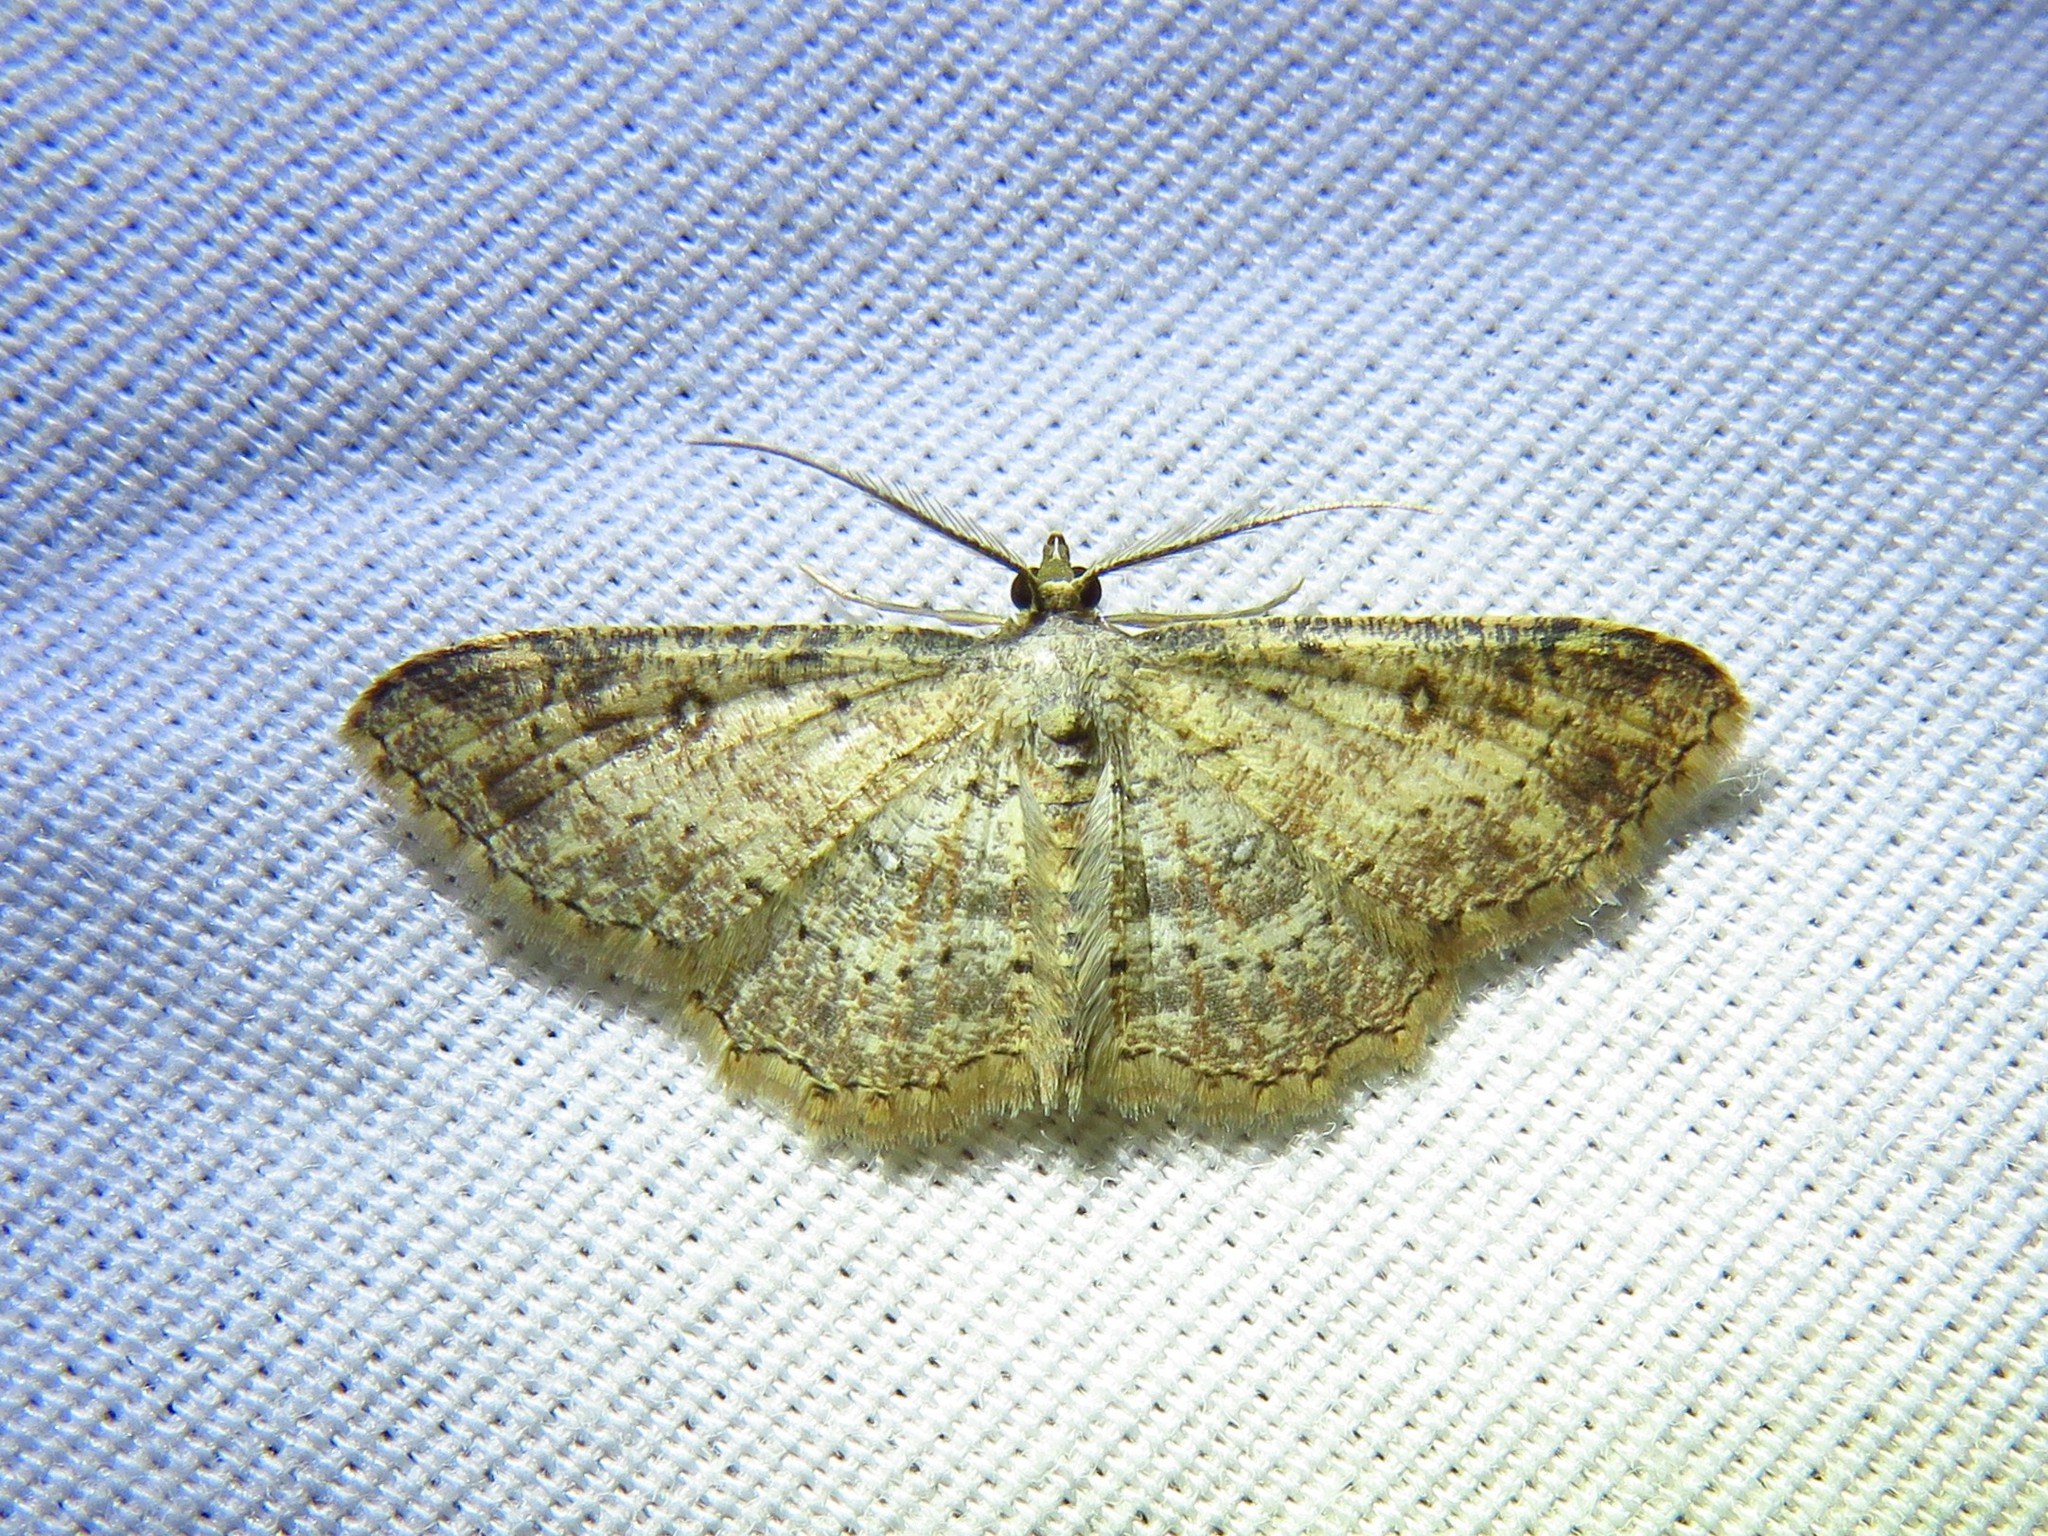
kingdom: Animalia
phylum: Arthropoda
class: Insecta
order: Lepidoptera
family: Geometridae
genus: Cyclophora
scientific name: Cyclophora nanaria
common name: Cankerworm
